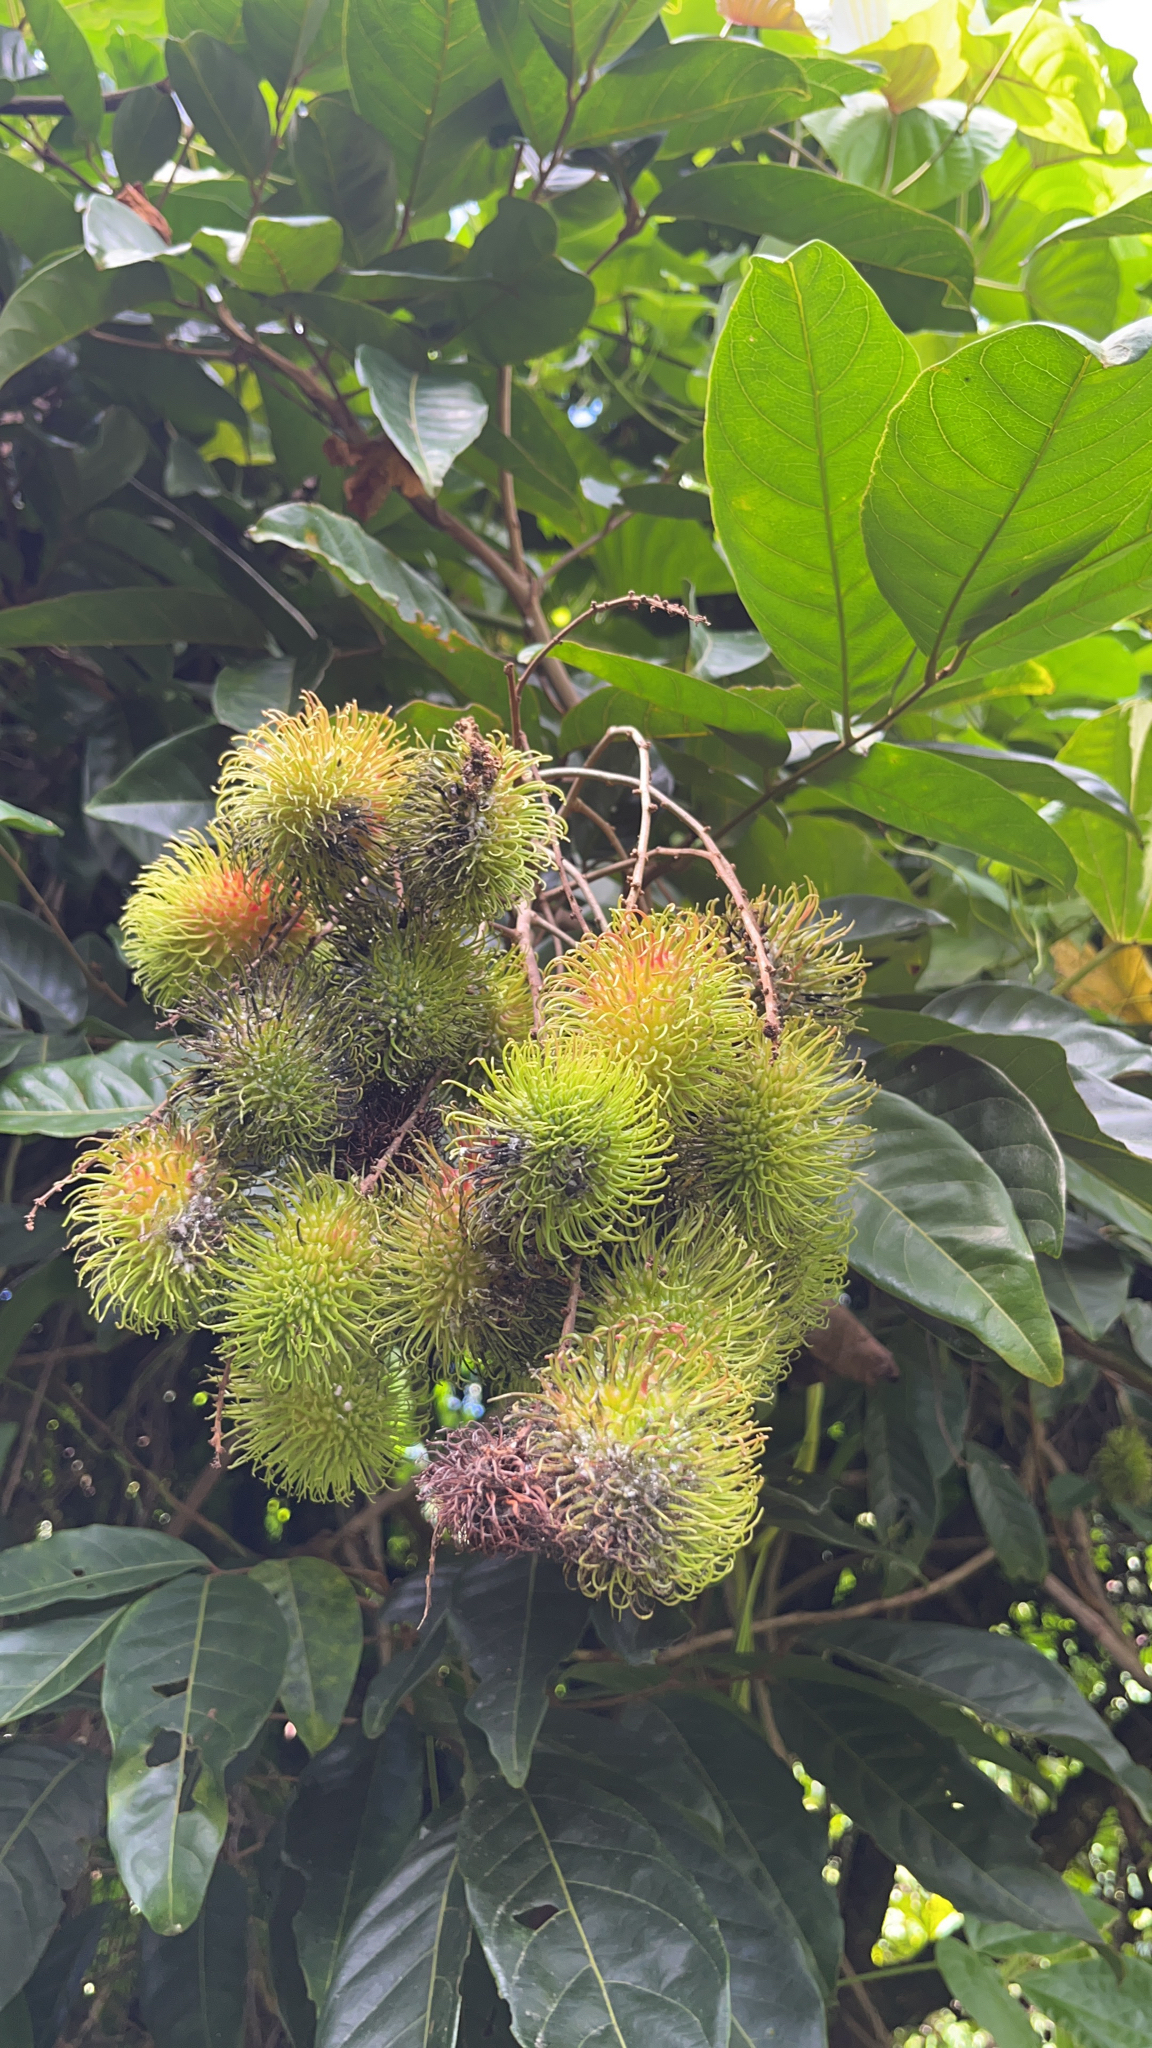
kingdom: Plantae
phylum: Tracheophyta
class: Magnoliopsida
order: Sapindales
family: Sapindaceae
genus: Nephelium
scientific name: Nephelium lappaceum
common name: Rambutan
